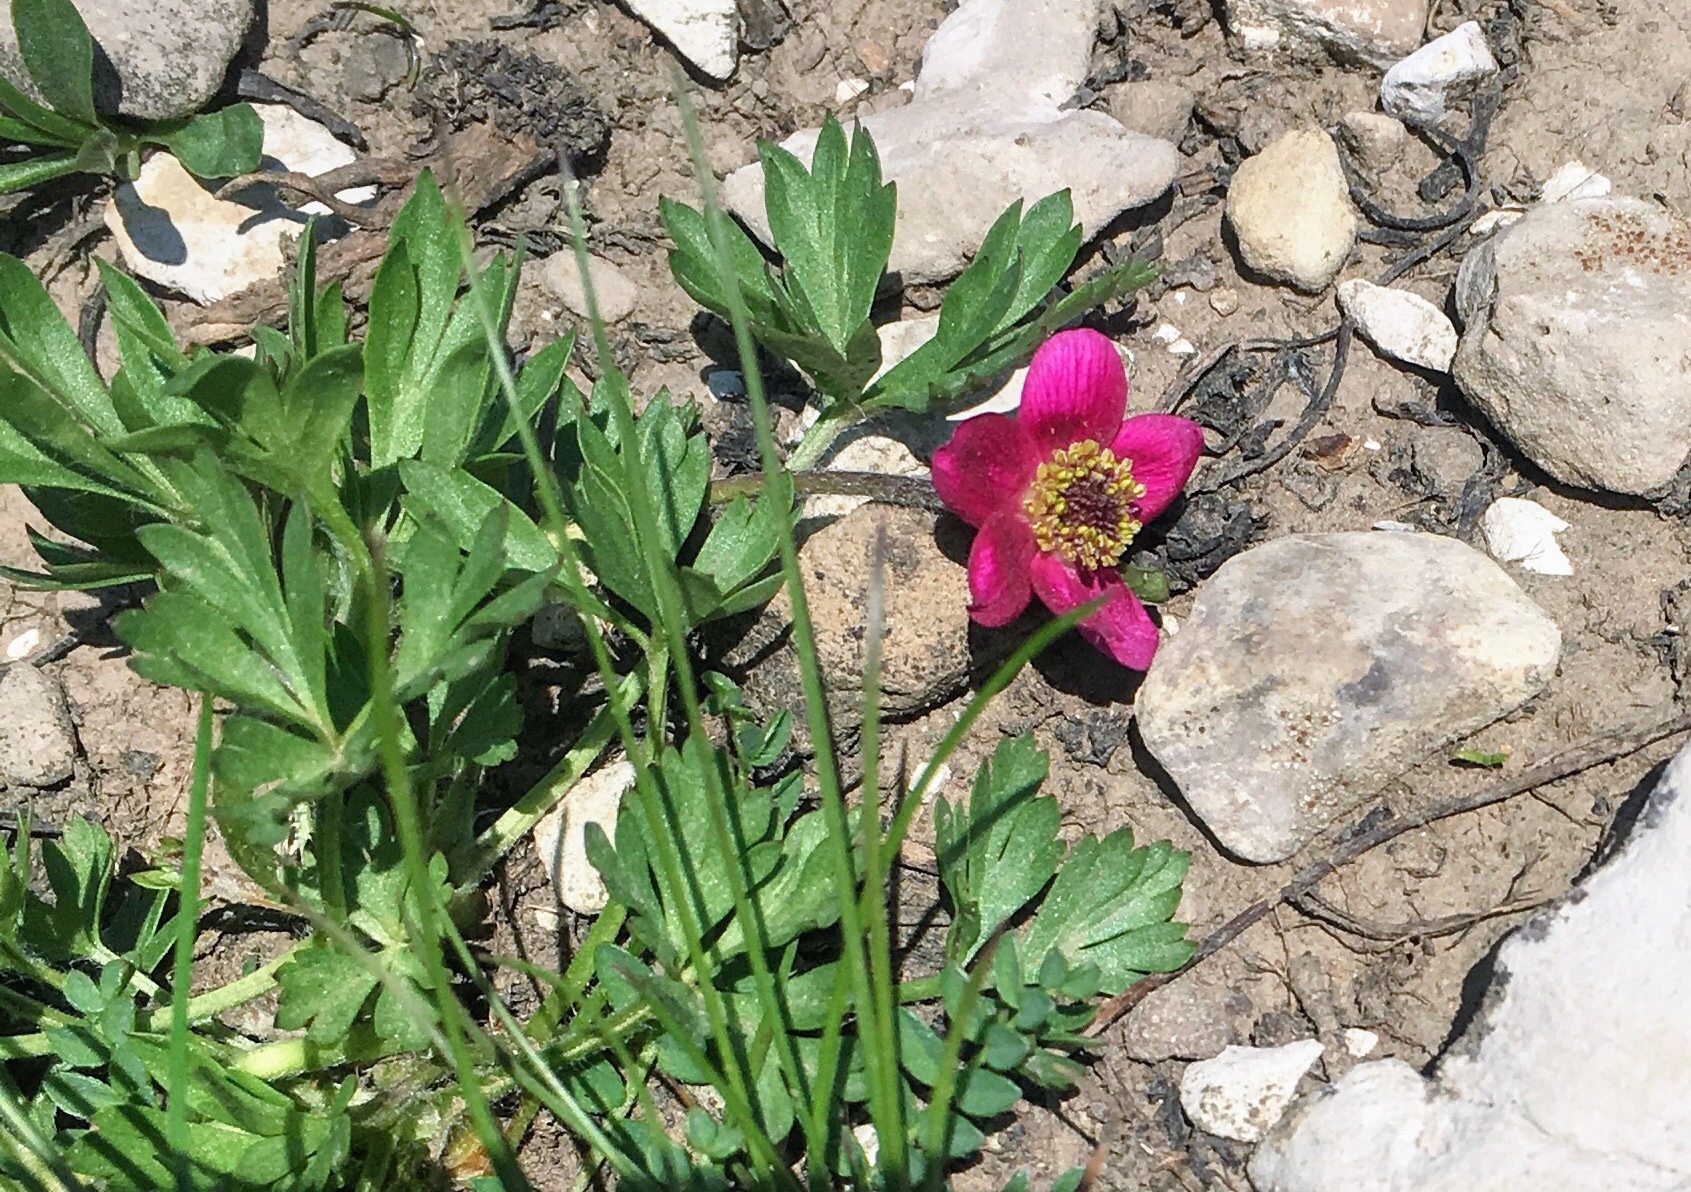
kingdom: Plantae
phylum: Tracheophyta
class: Magnoliopsida
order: Ranunculales
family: Ranunculaceae
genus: Anemone
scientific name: Anemone multifida
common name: Bird's-foot anemone
